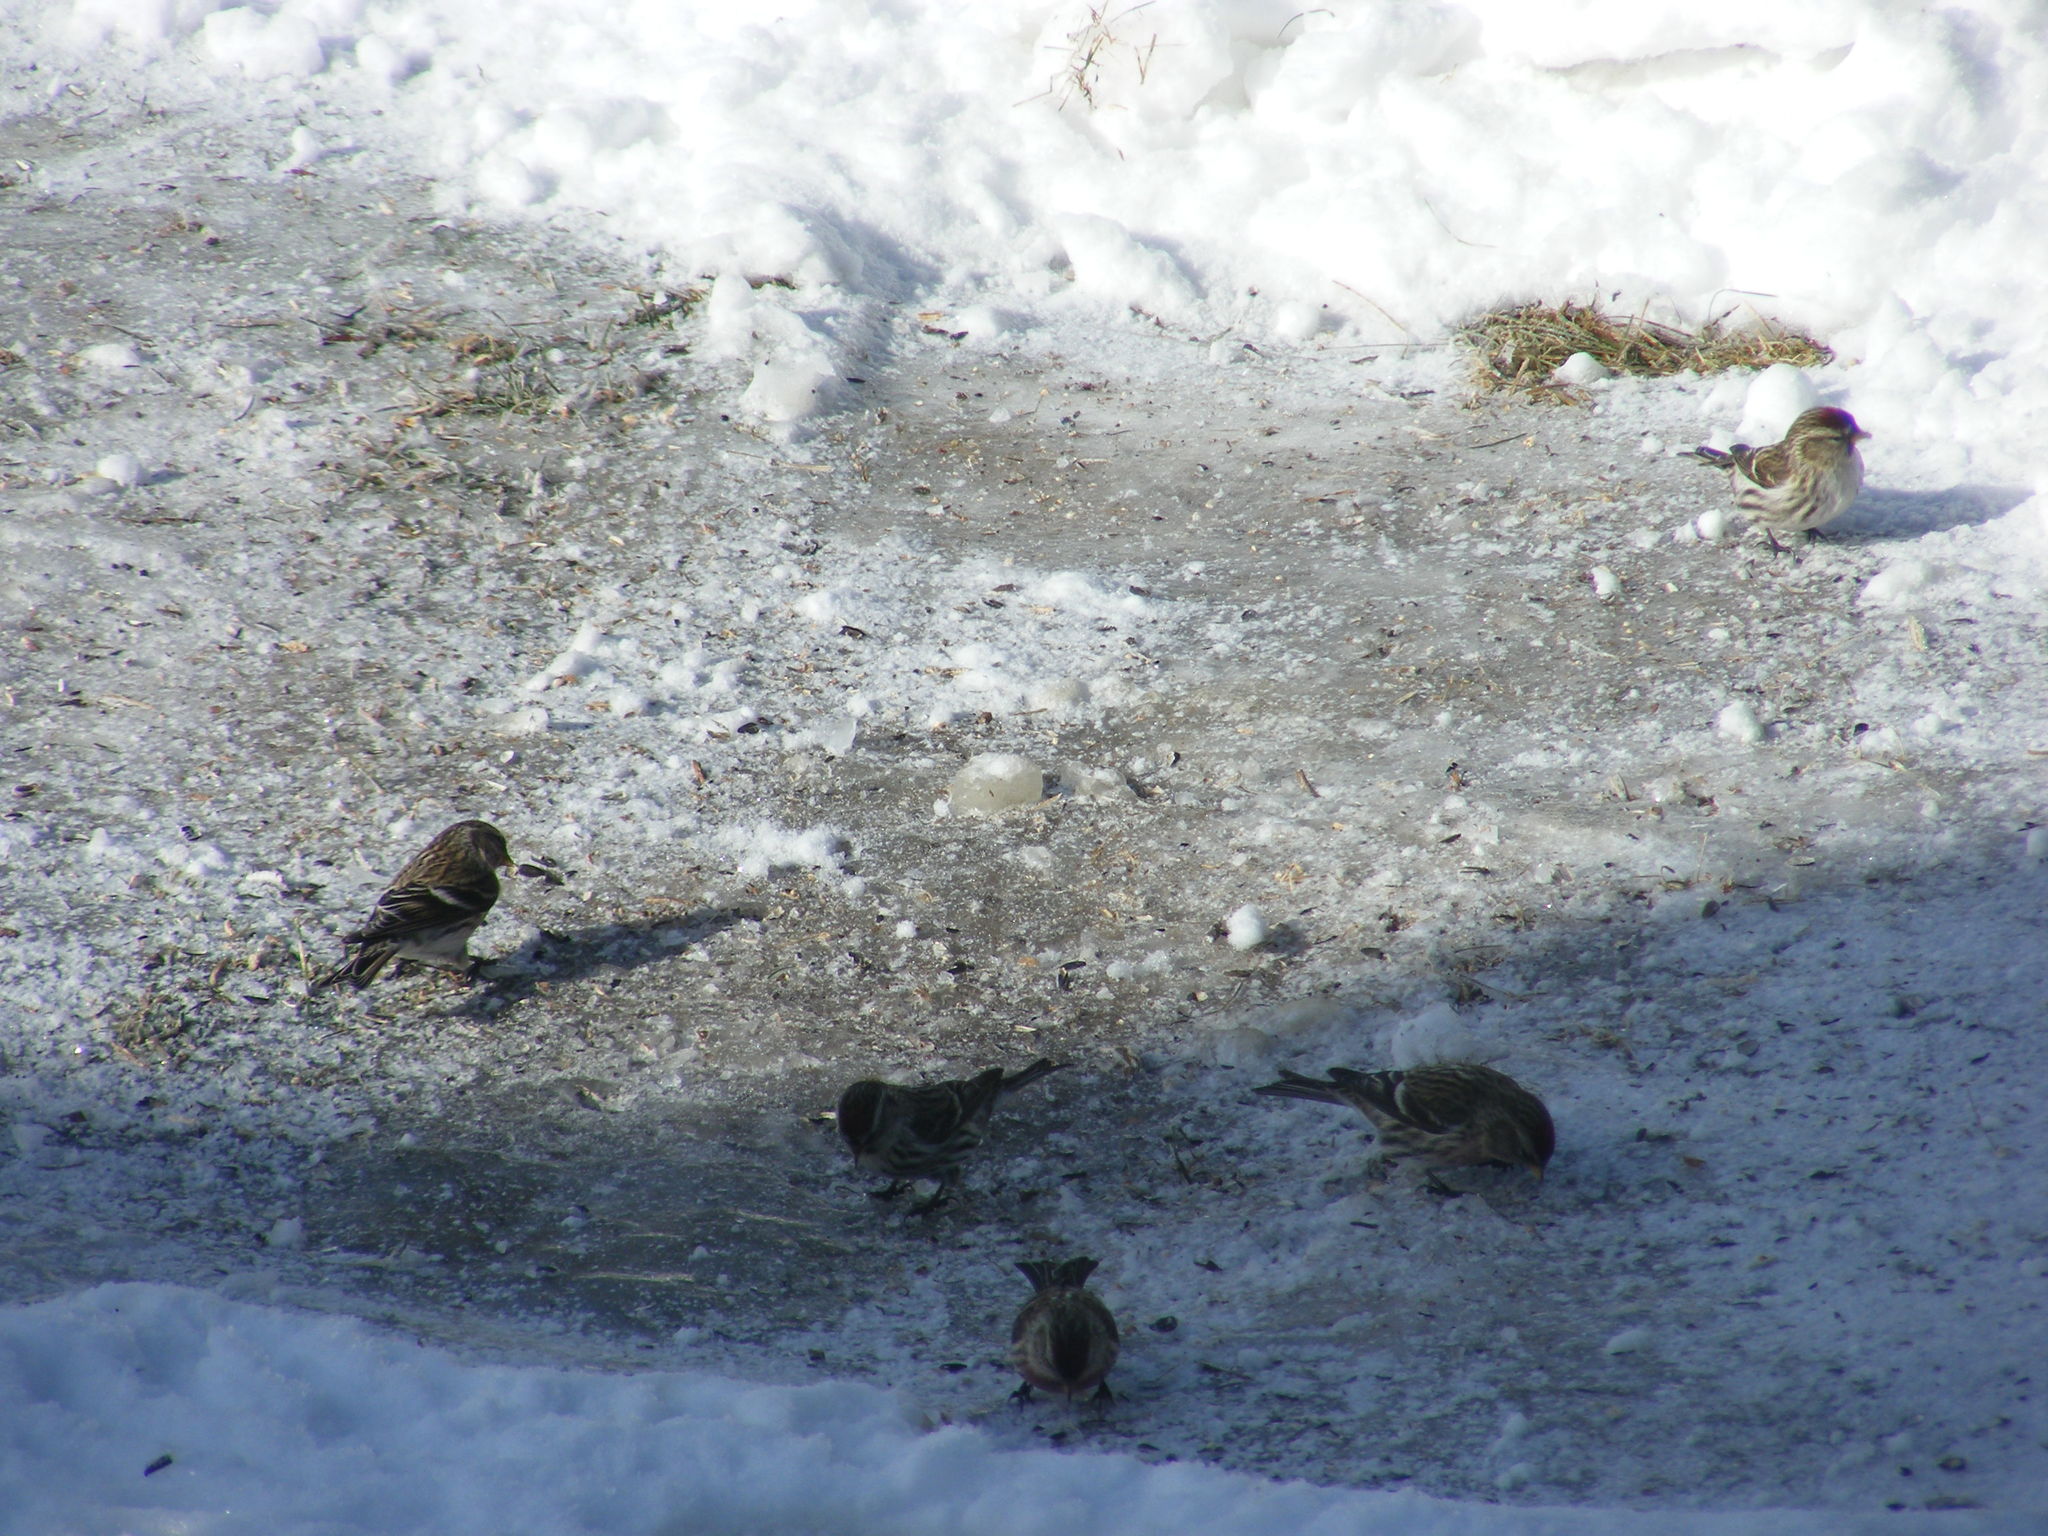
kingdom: Animalia
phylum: Chordata
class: Aves
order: Passeriformes
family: Fringillidae
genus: Acanthis
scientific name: Acanthis flammea
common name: Common redpoll
